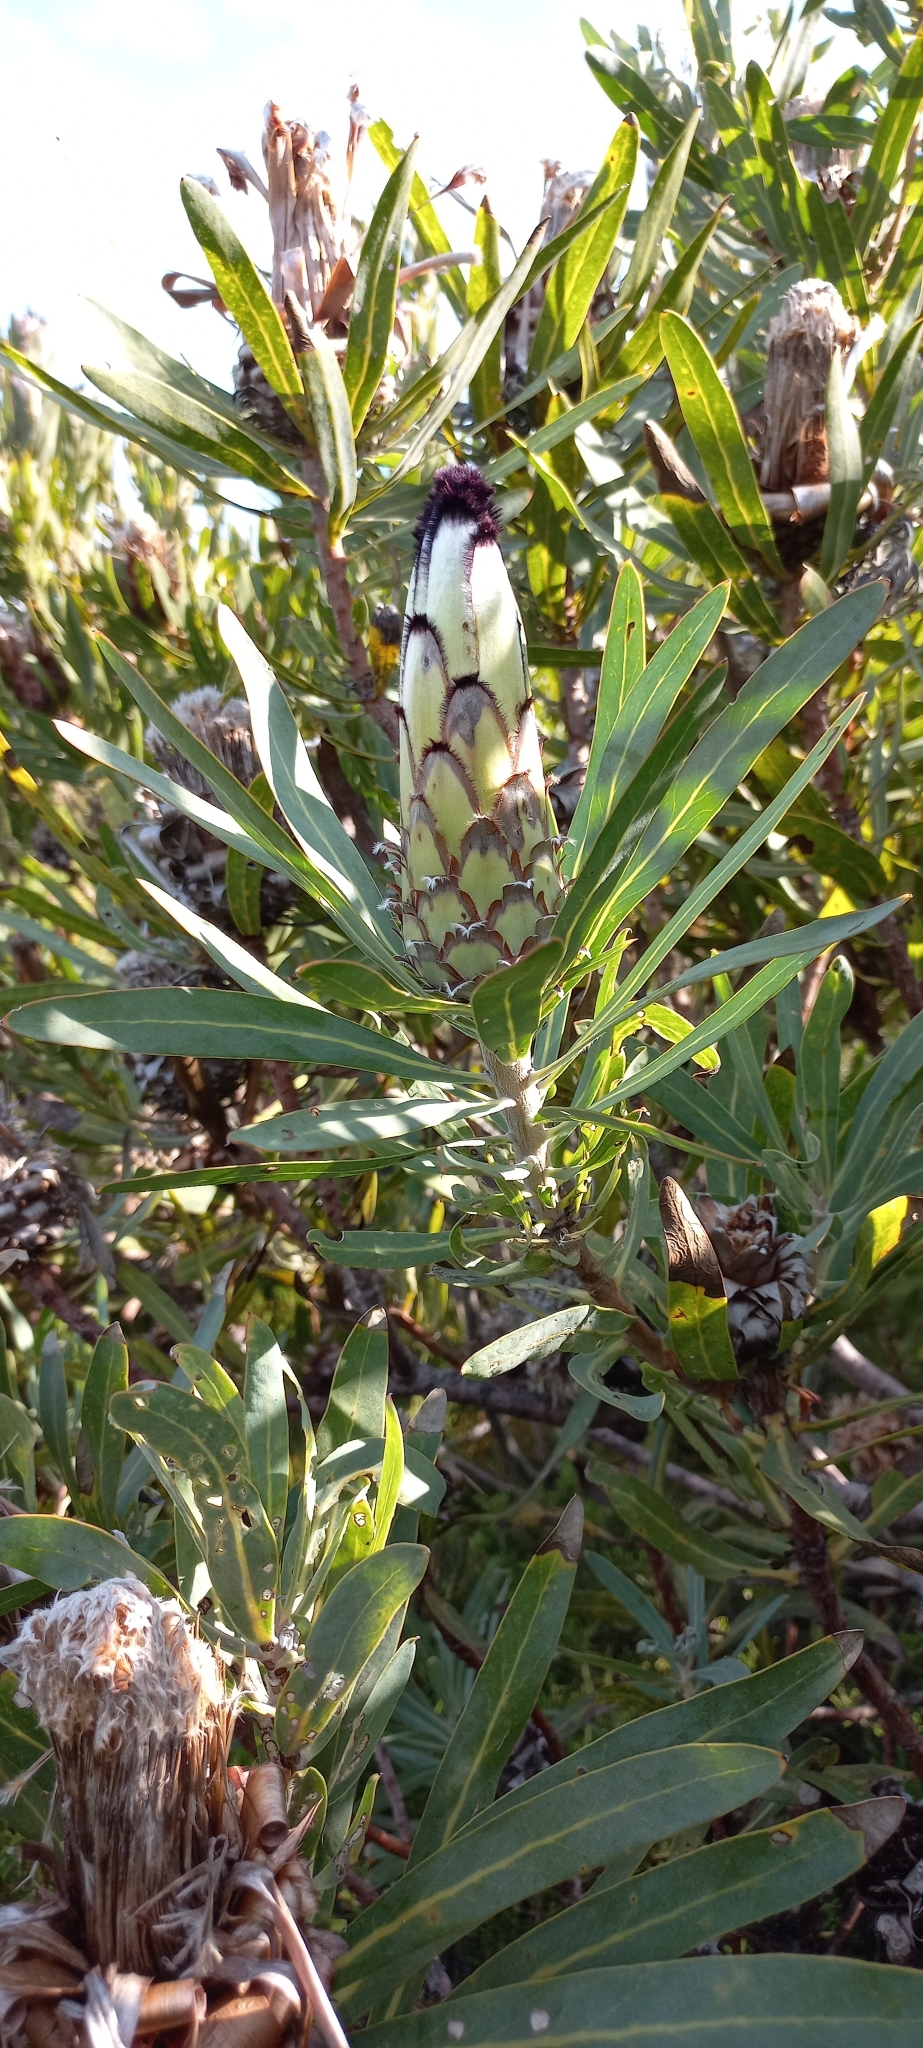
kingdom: Plantae
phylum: Tracheophyta
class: Magnoliopsida
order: Proteales
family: Proteaceae
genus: Protea
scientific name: Protea neriifolia
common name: Blue sugarbush
